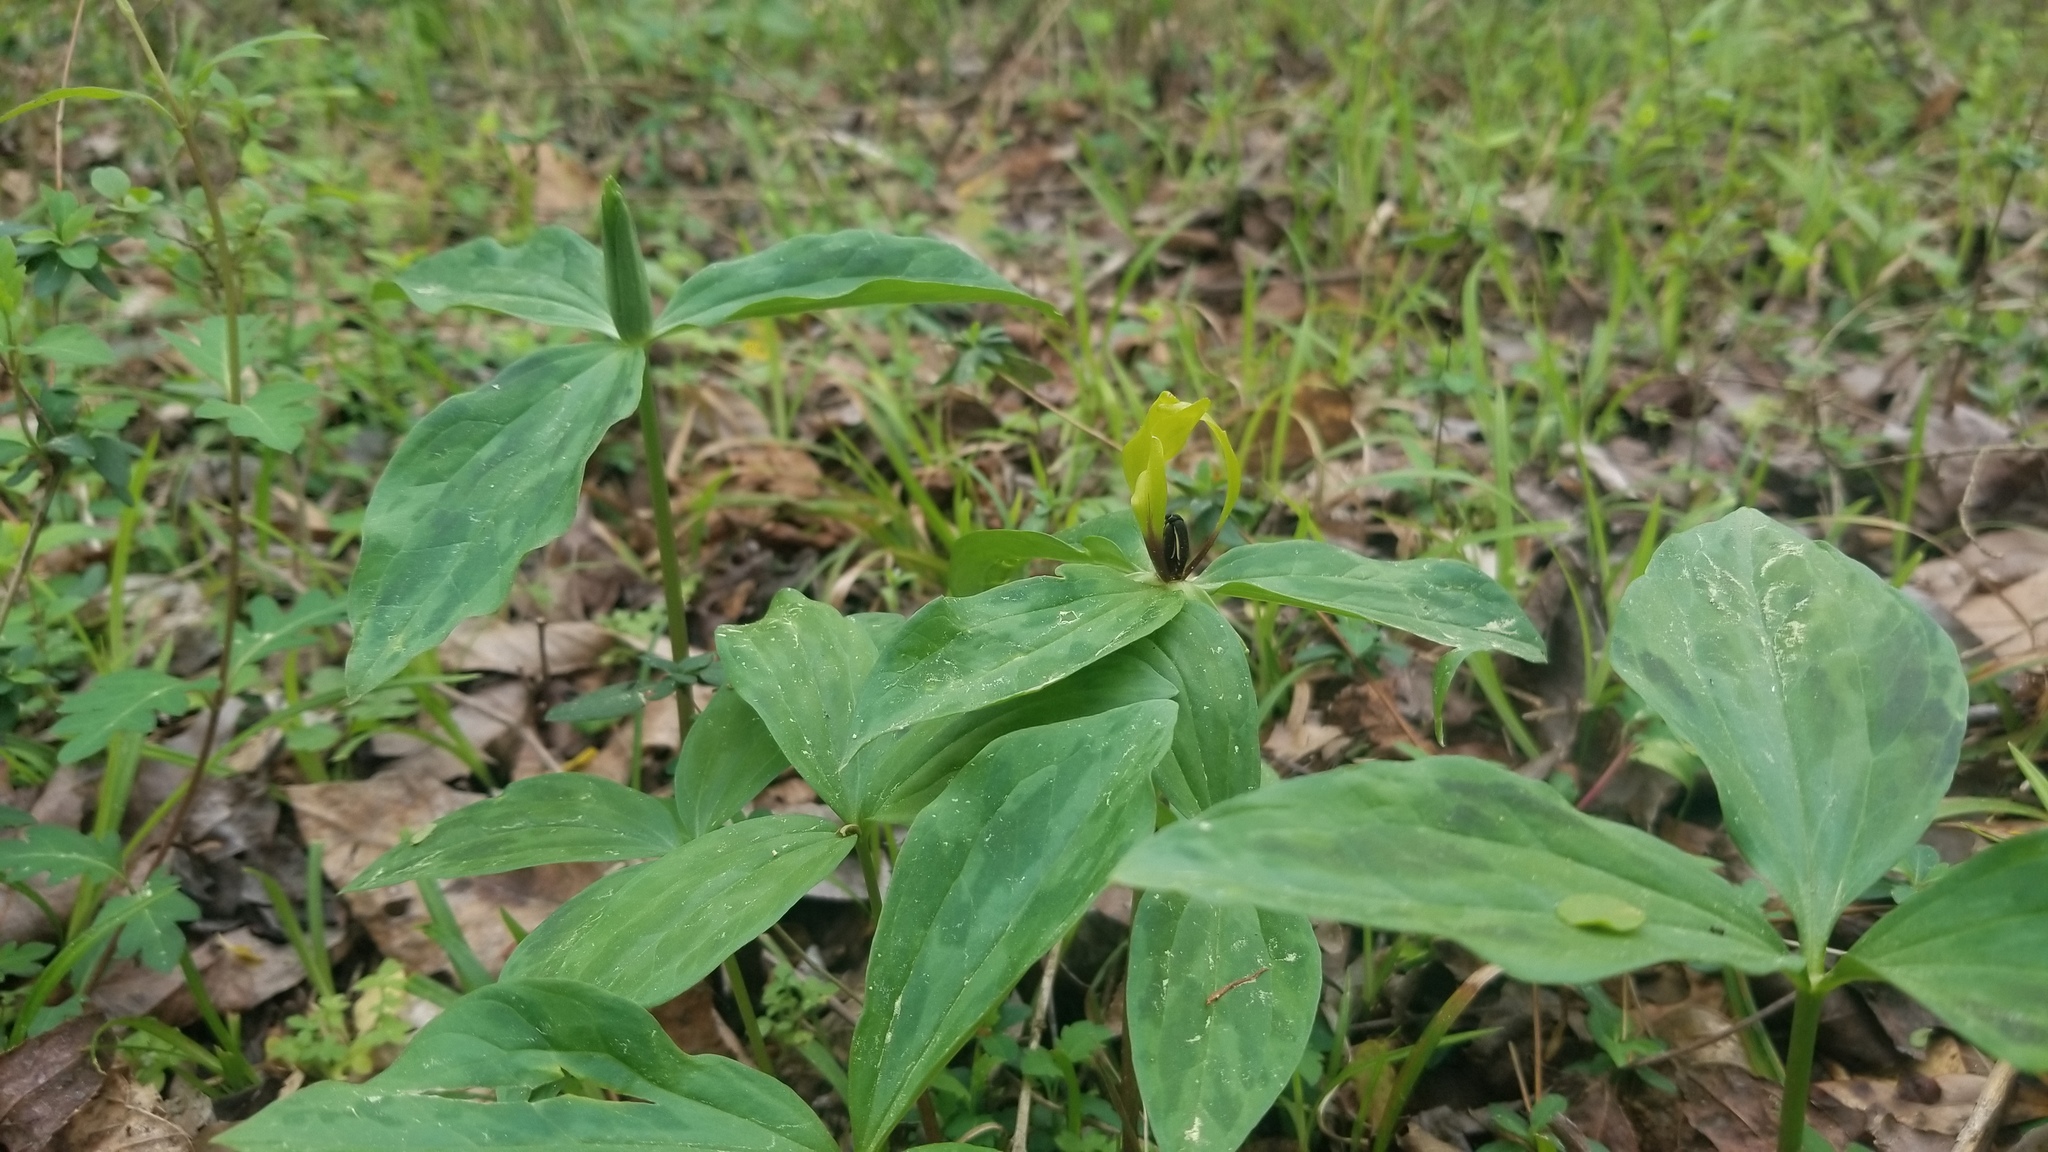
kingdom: Plantae
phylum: Tracheophyta
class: Liliopsida
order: Liliales
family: Melanthiaceae
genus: Trillium
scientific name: Trillium oostingii
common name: Wateree trillium
